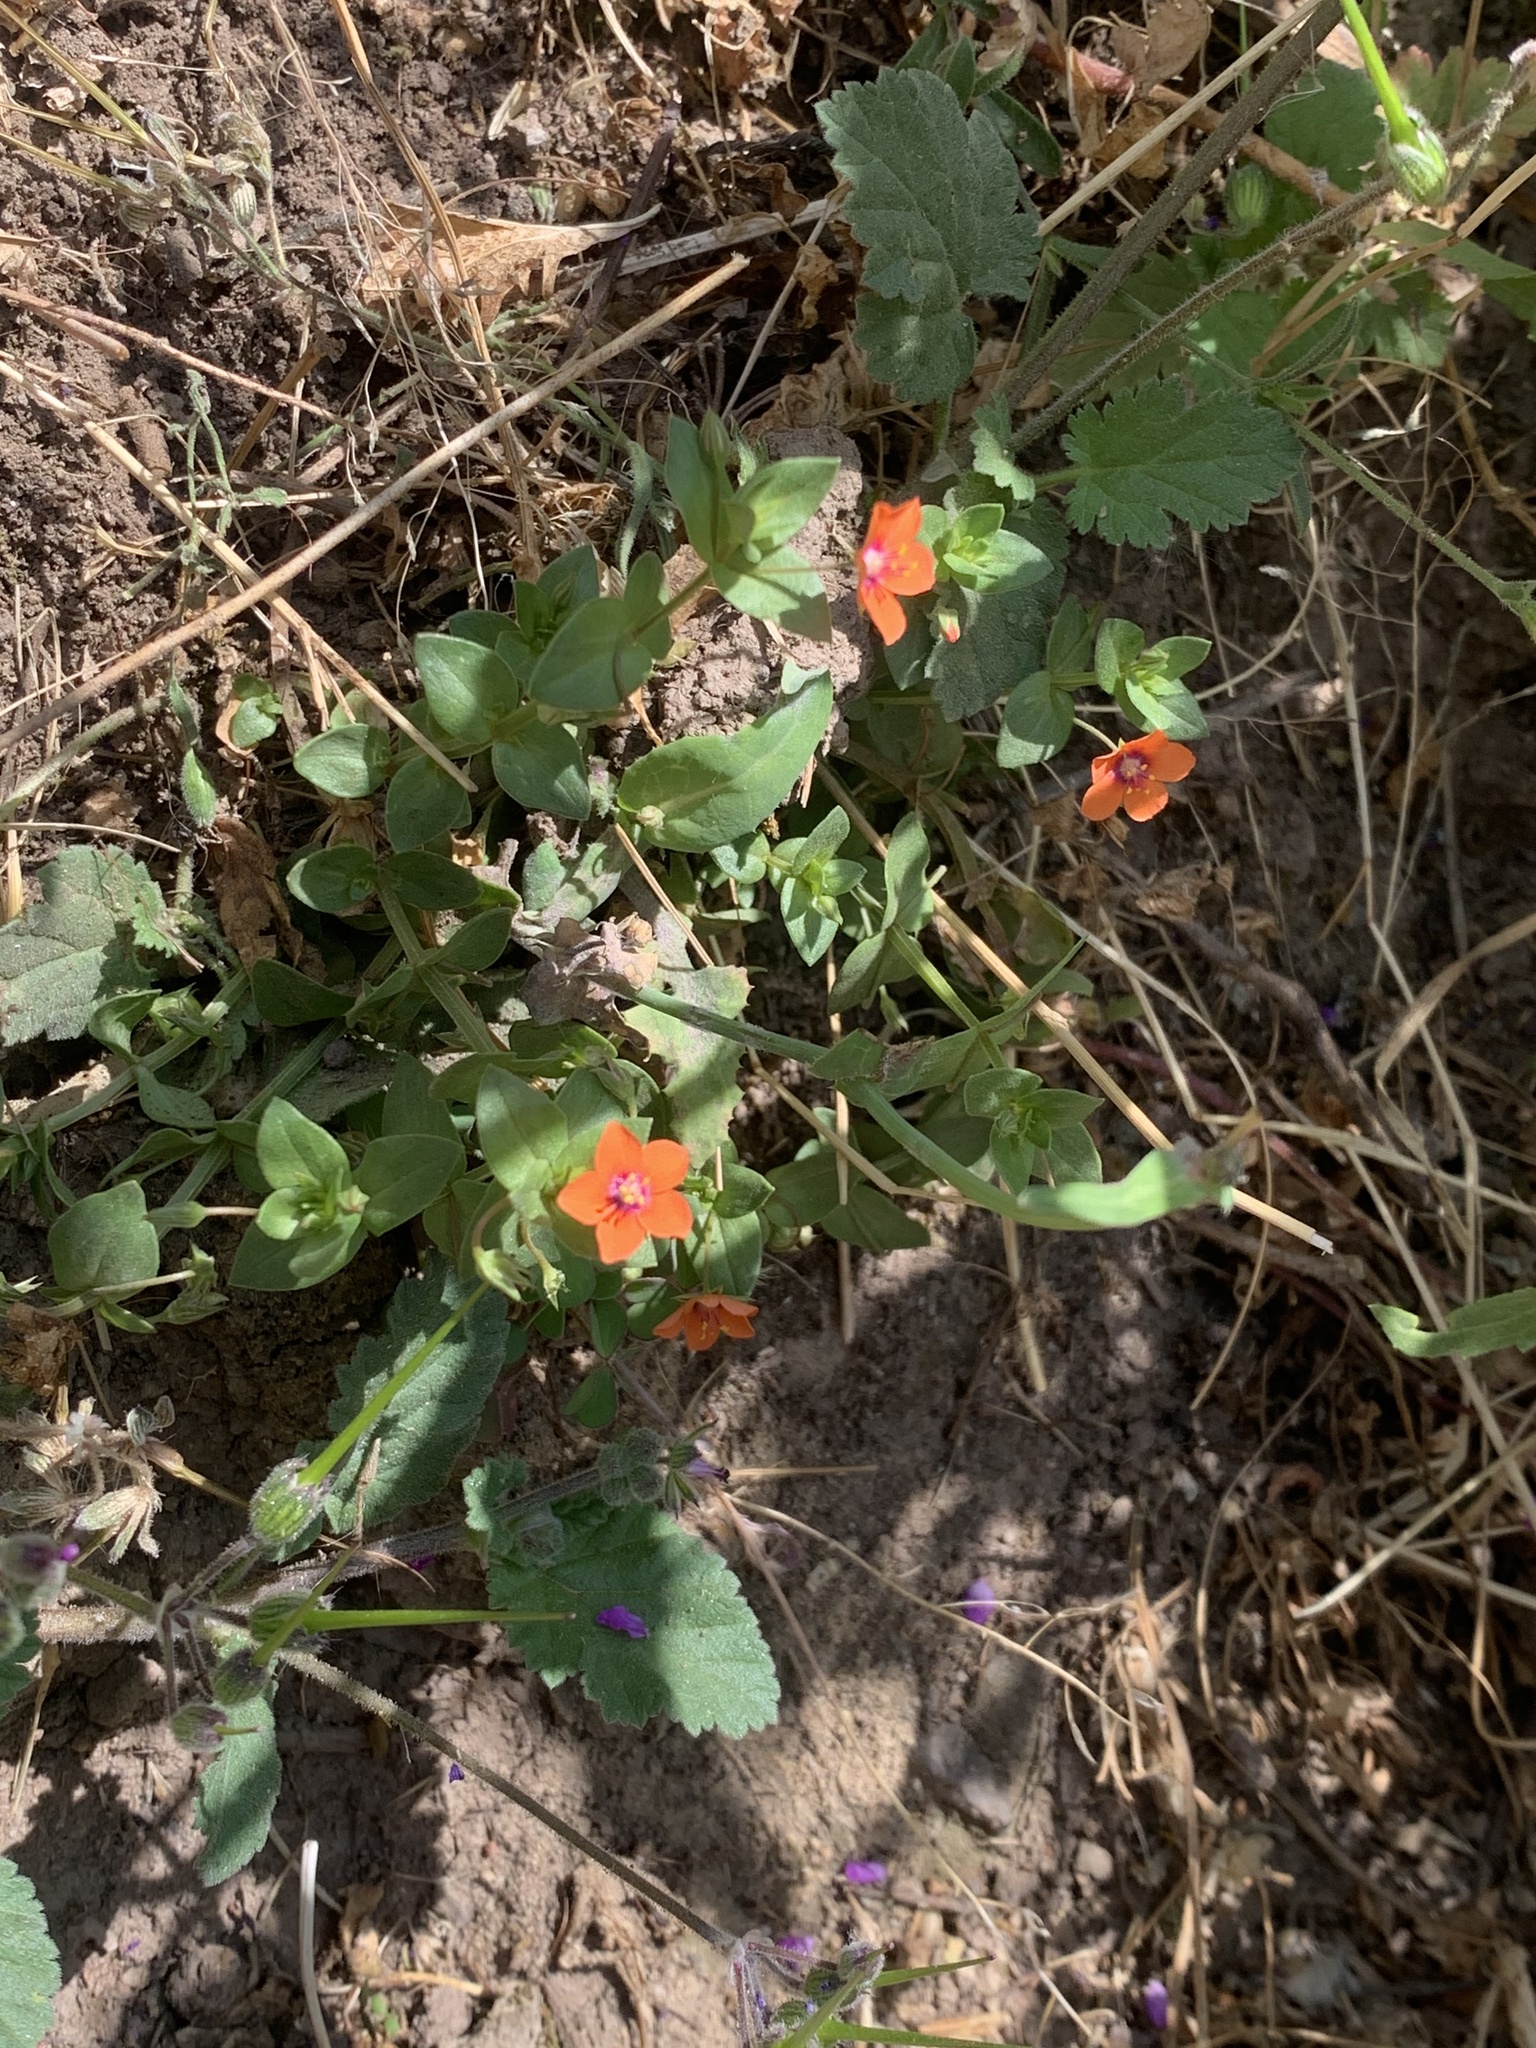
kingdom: Plantae
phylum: Tracheophyta
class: Magnoliopsida
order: Ericales
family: Primulaceae
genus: Lysimachia
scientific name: Lysimachia arvensis
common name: Scarlet pimpernel
